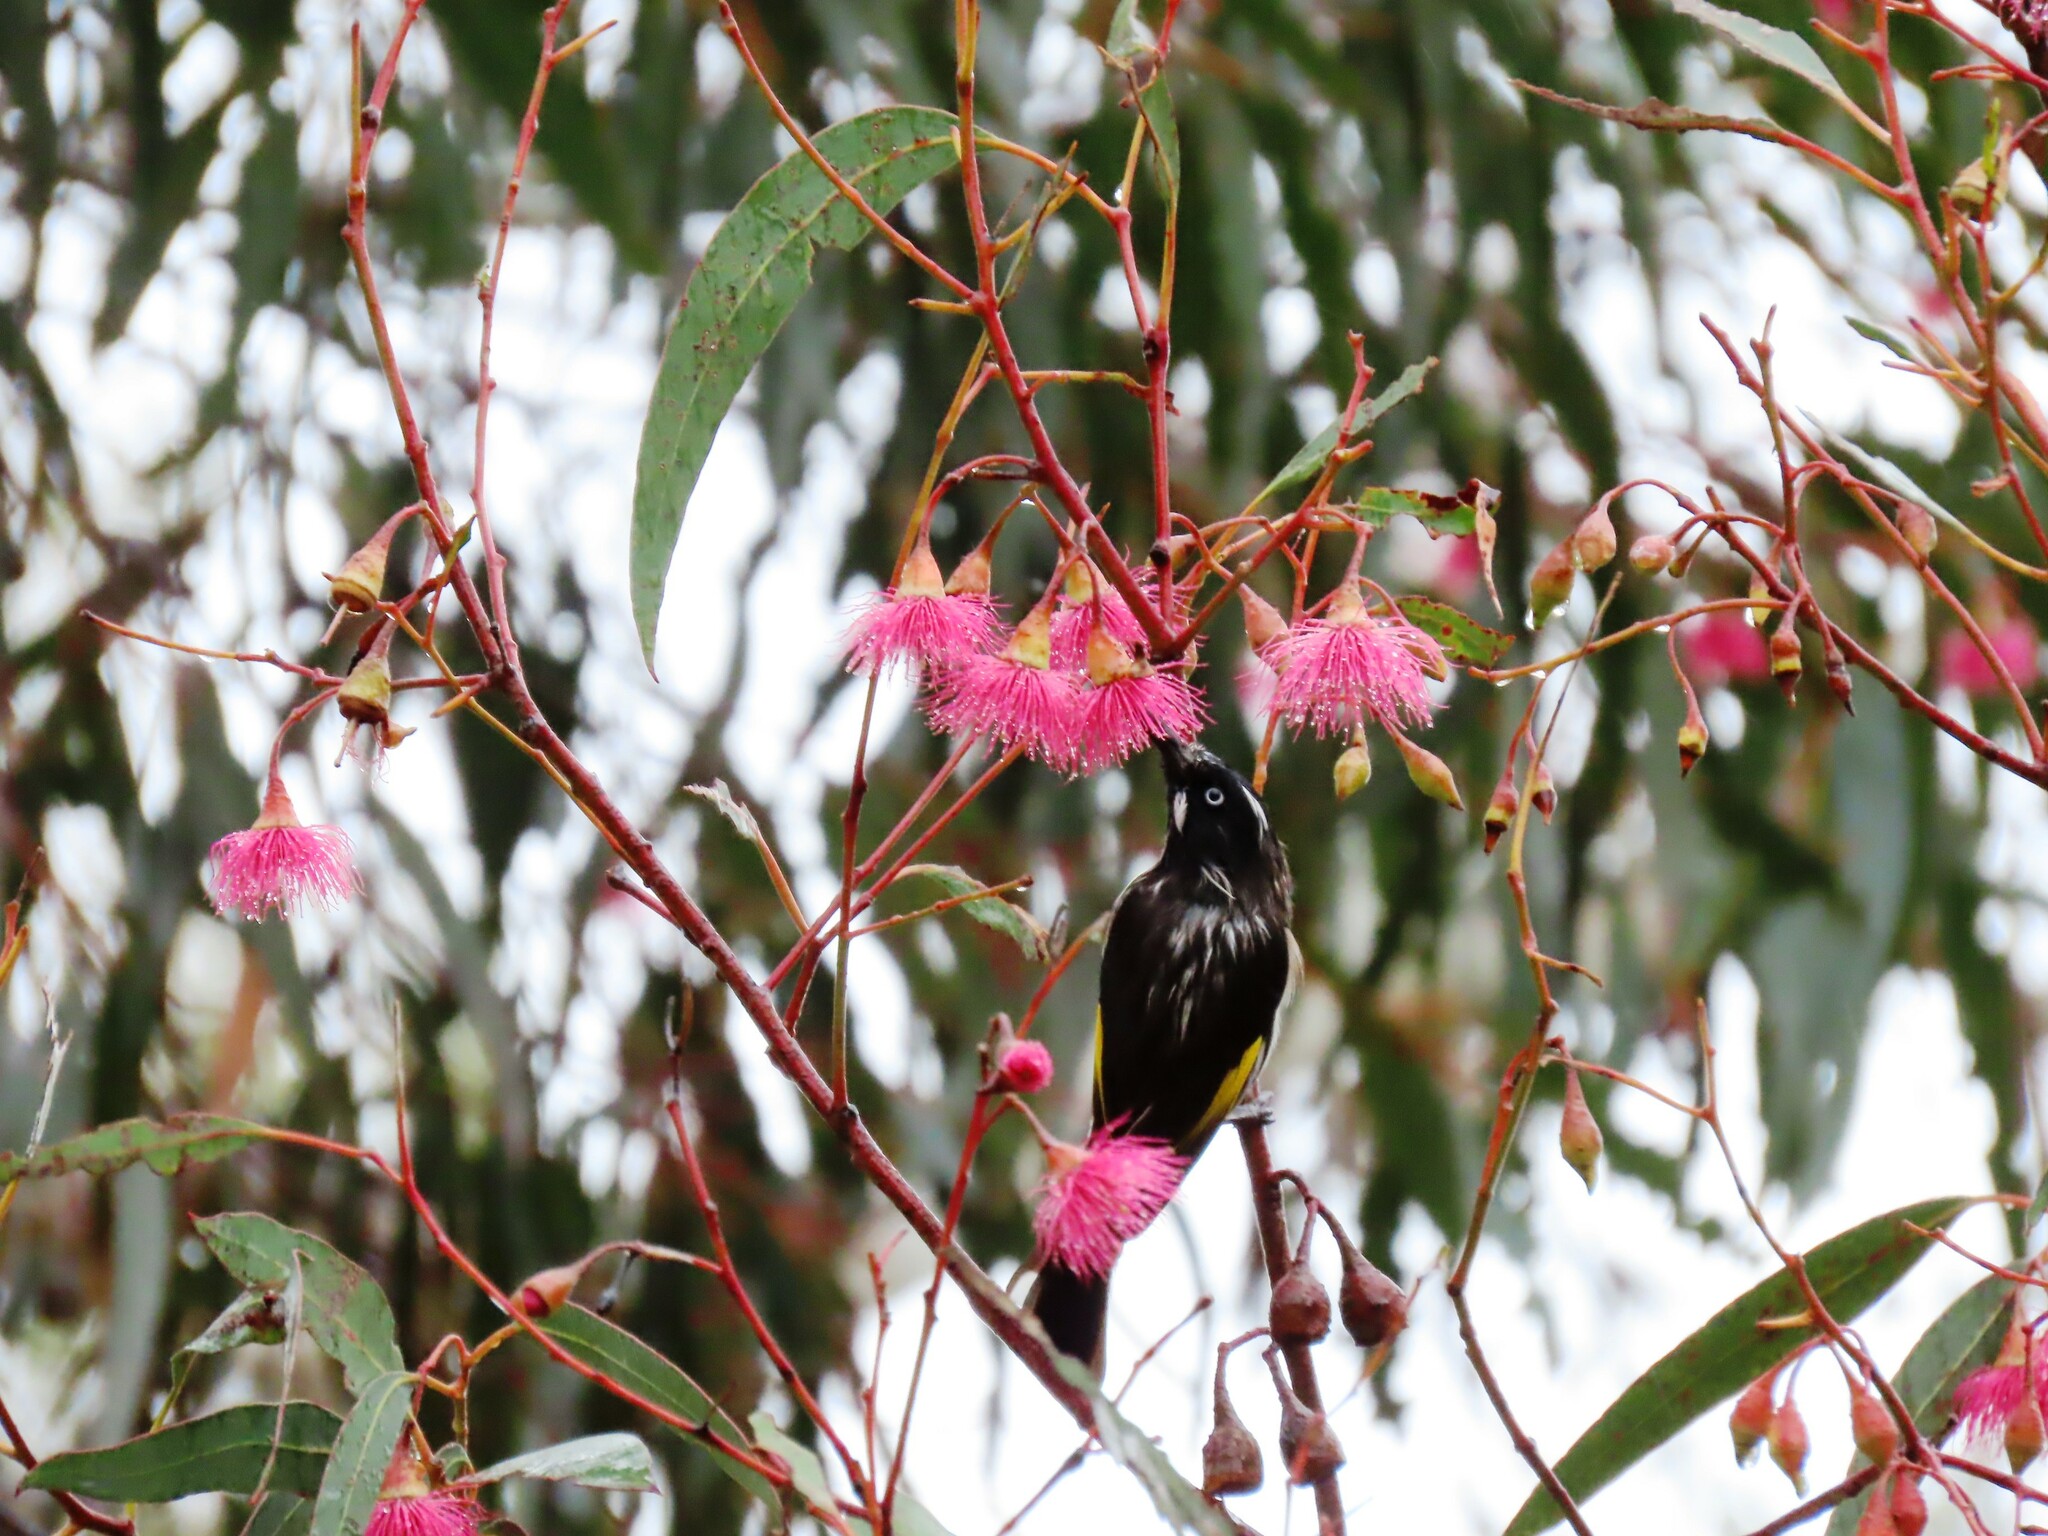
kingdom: Animalia
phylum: Chordata
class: Aves
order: Passeriformes
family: Meliphagidae
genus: Phylidonyris
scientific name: Phylidonyris novaehollandiae
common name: New holland honeyeater
